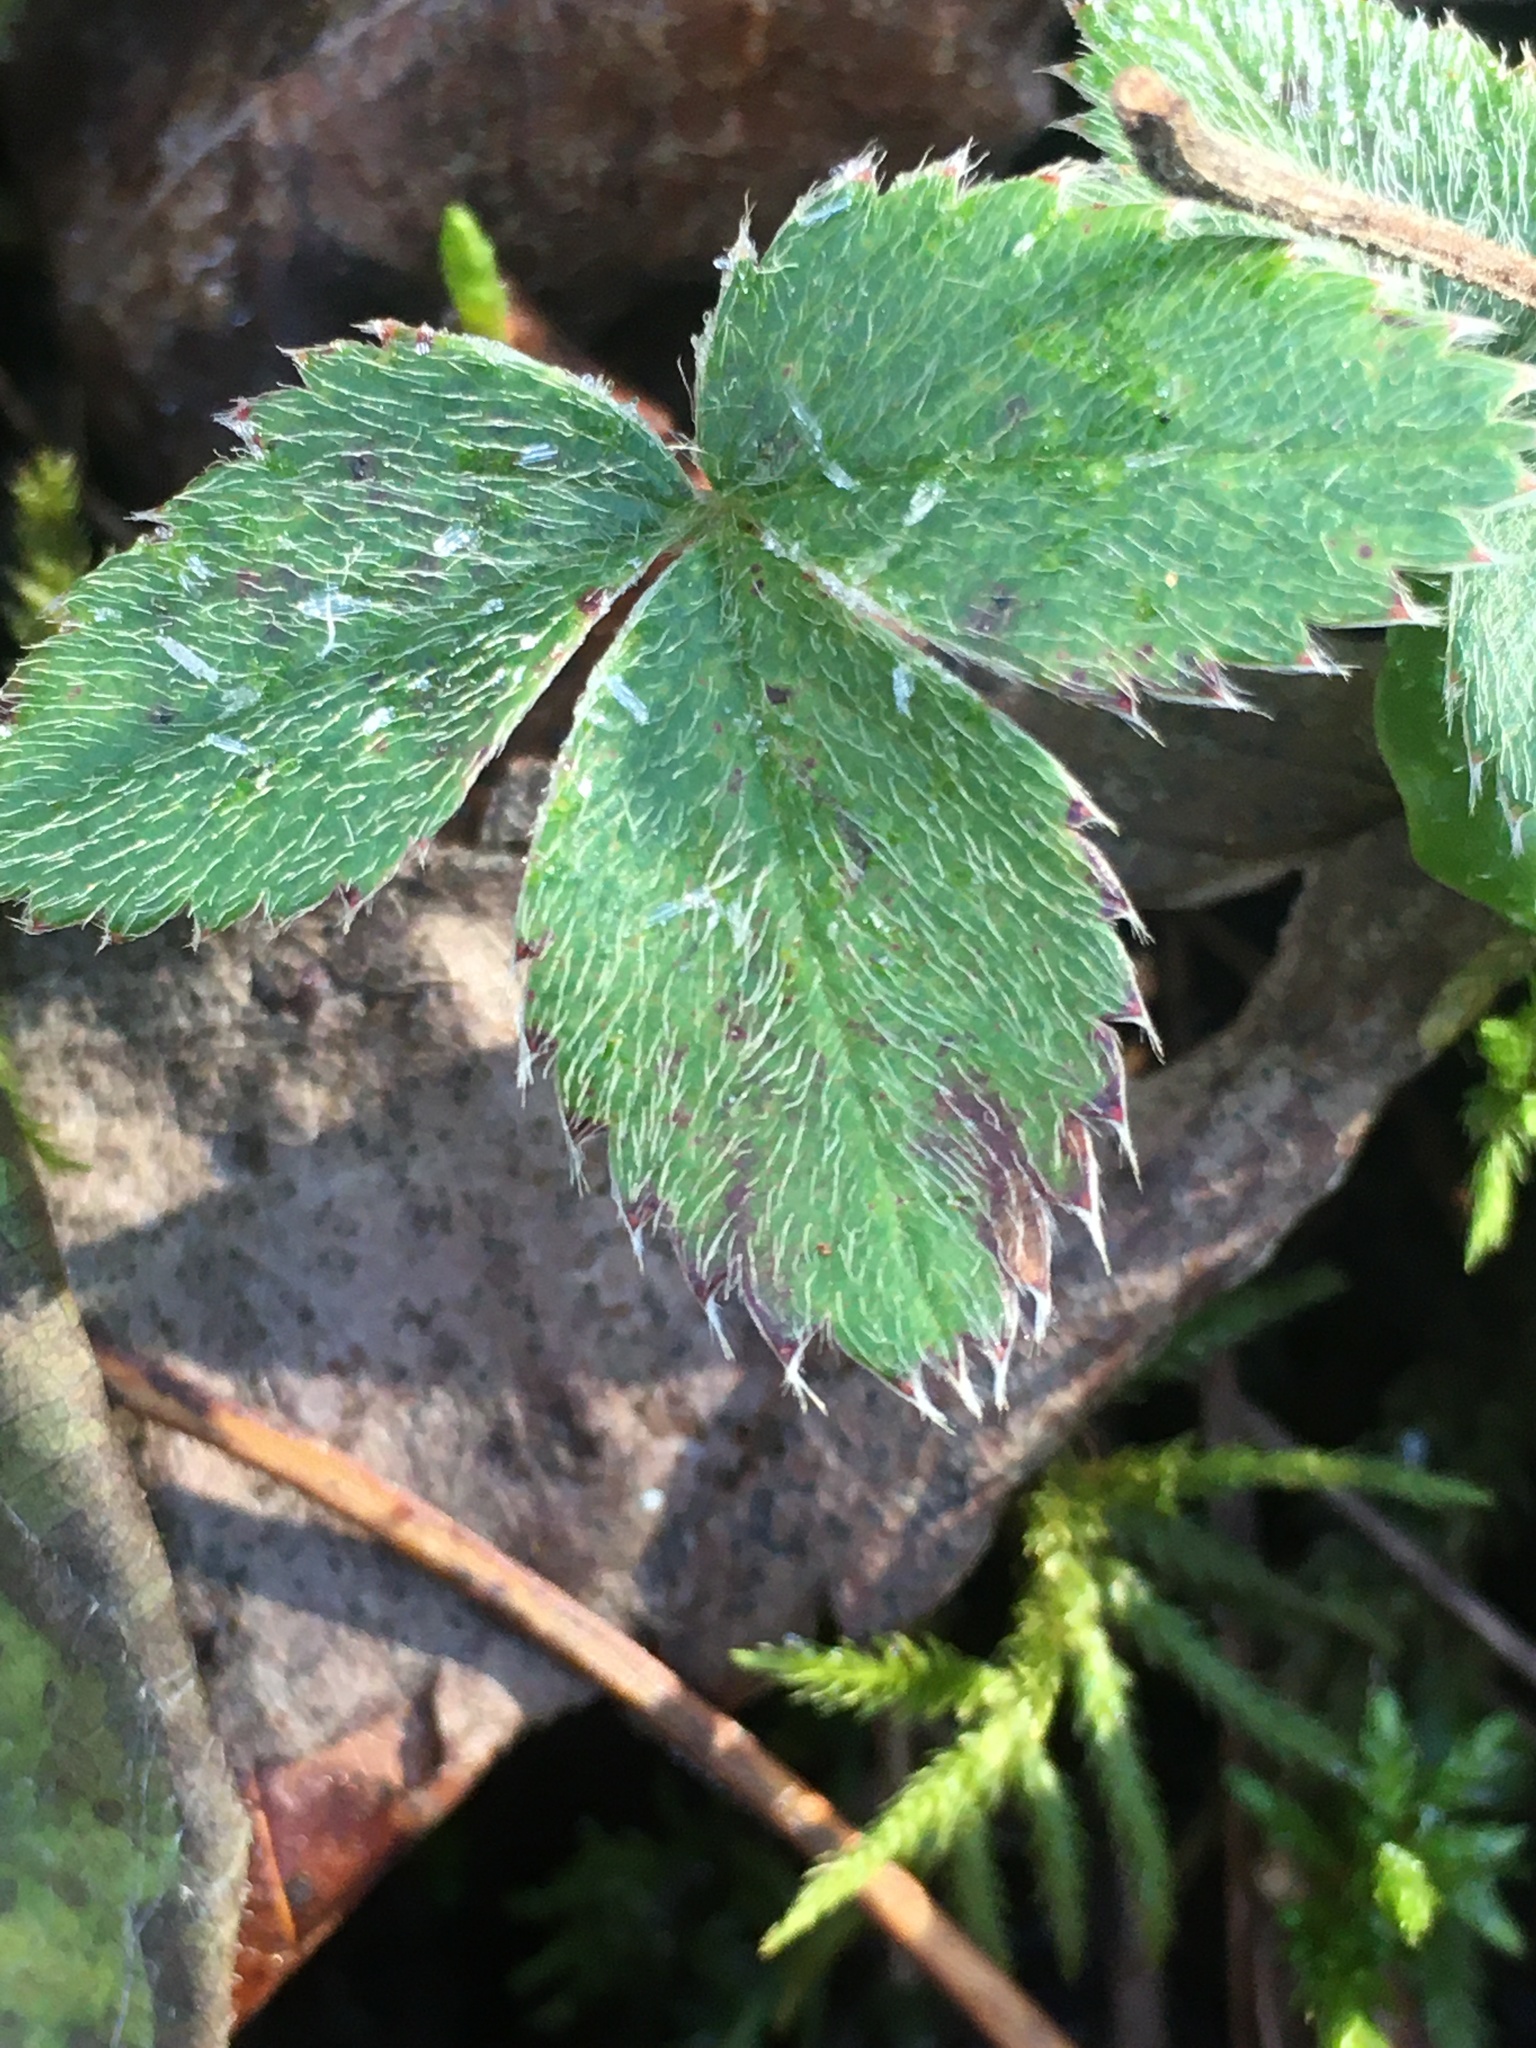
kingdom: Plantae
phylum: Tracheophyta
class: Magnoliopsida
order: Rosales
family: Rosaceae
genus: Fragaria
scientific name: Fragaria virginiana
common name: Thickleaved wild strawberry
